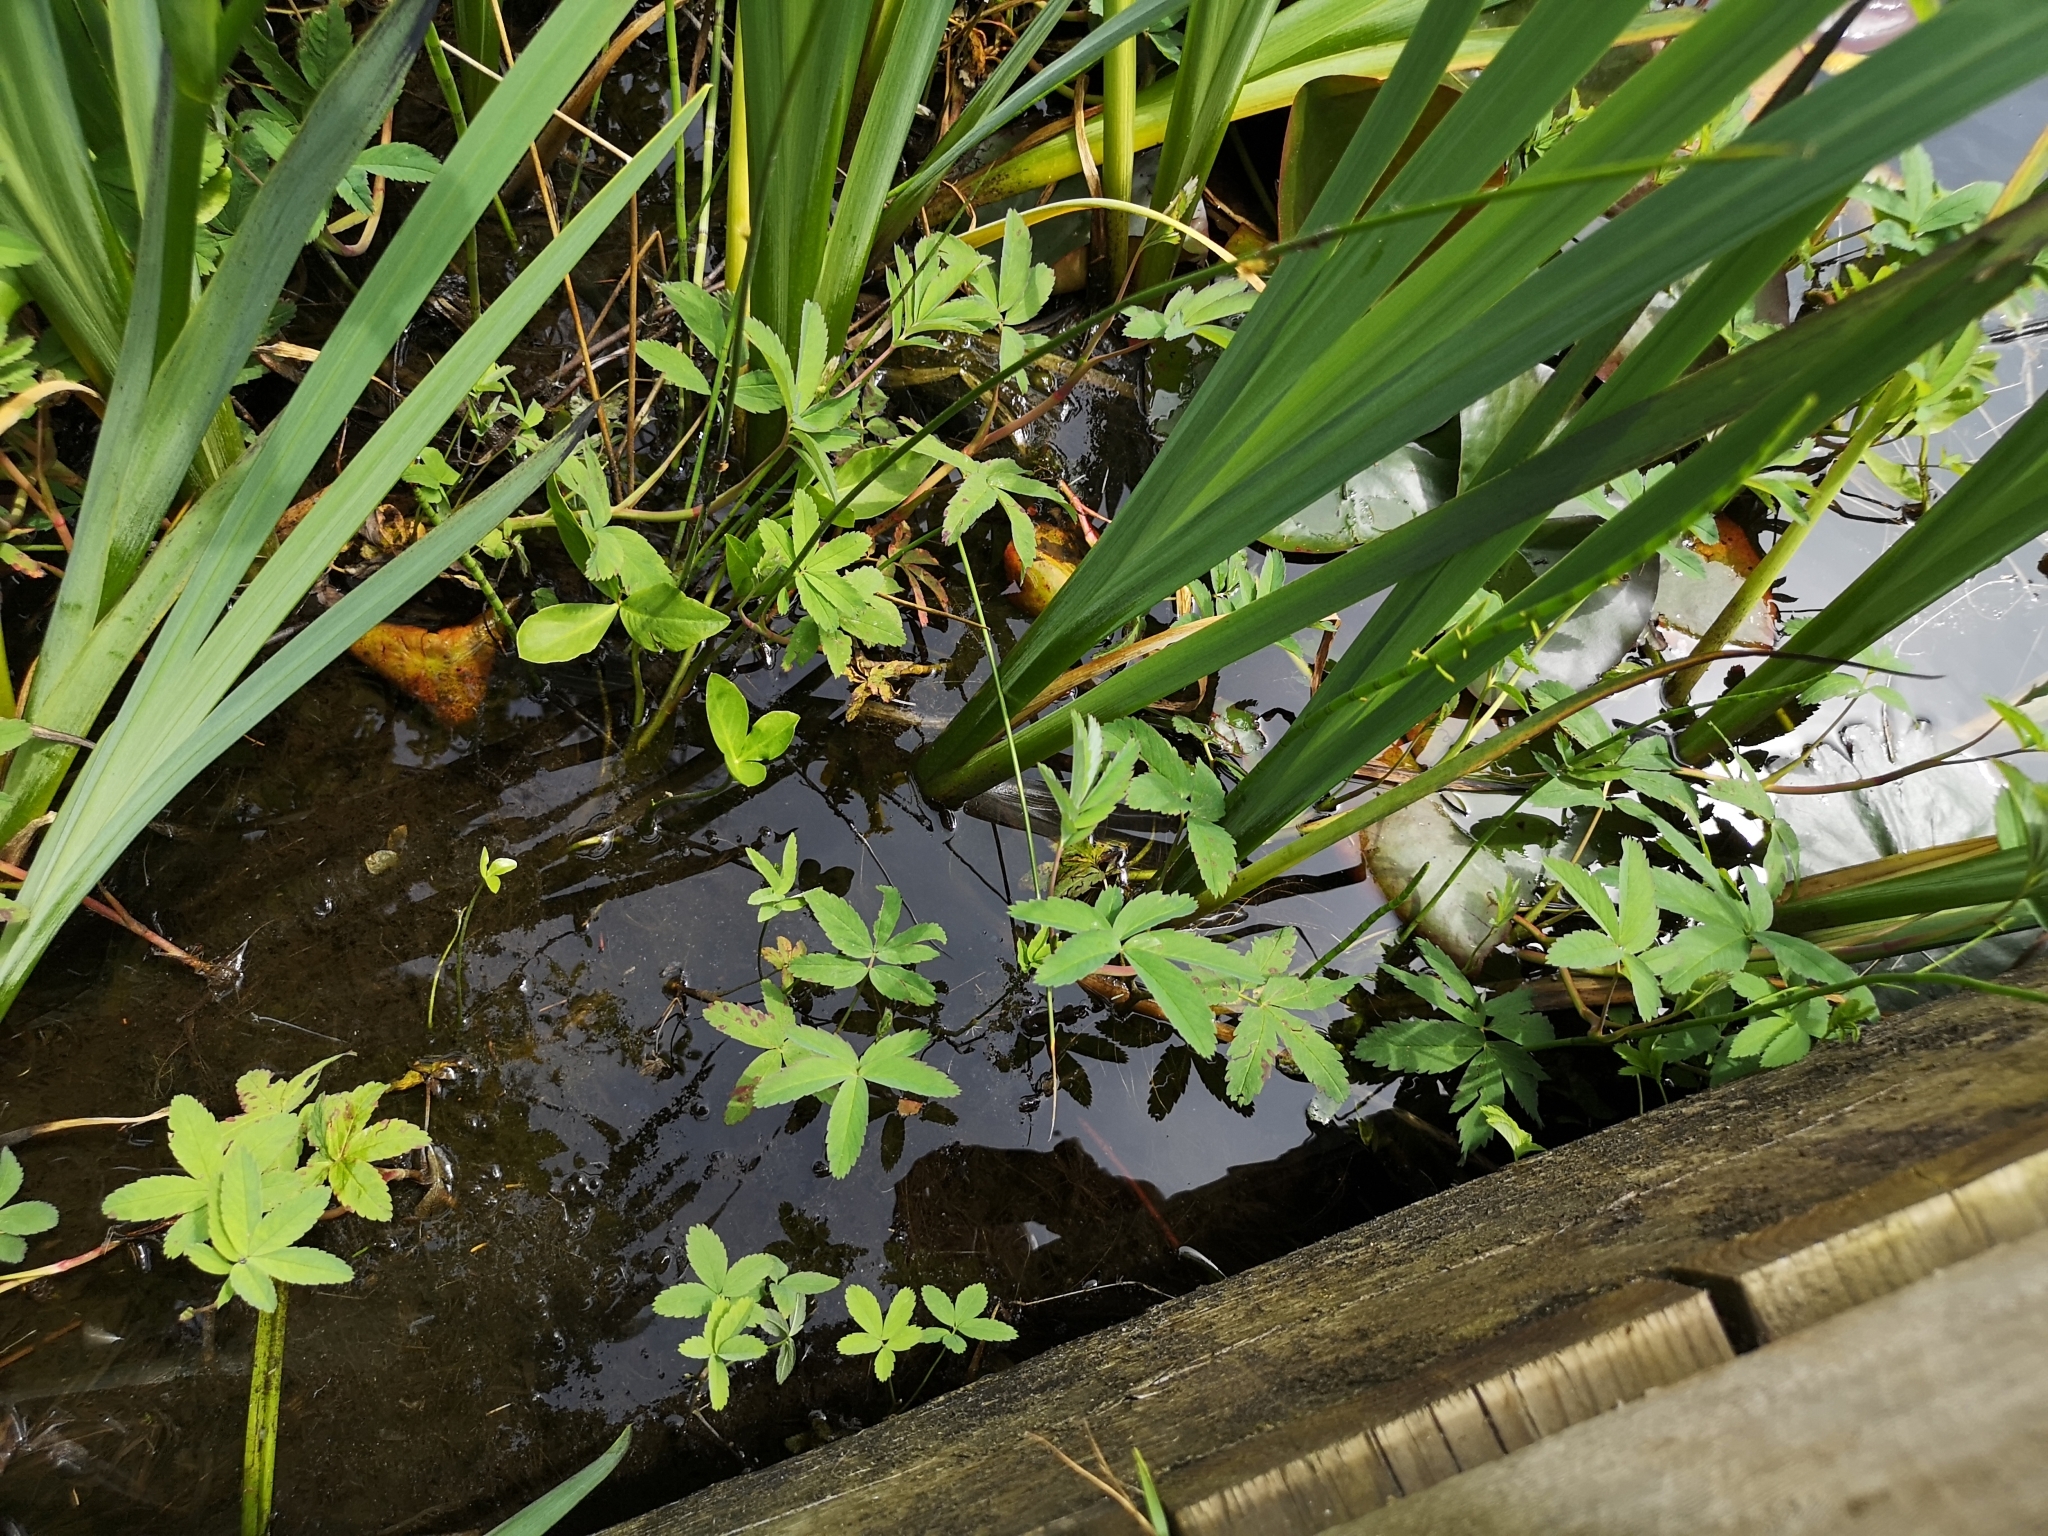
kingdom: Plantae
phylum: Tracheophyta
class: Magnoliopsida
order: Rosales
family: Rosaceae
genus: Comarum
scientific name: Comarum palustre
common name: Marsh cinquefoil
